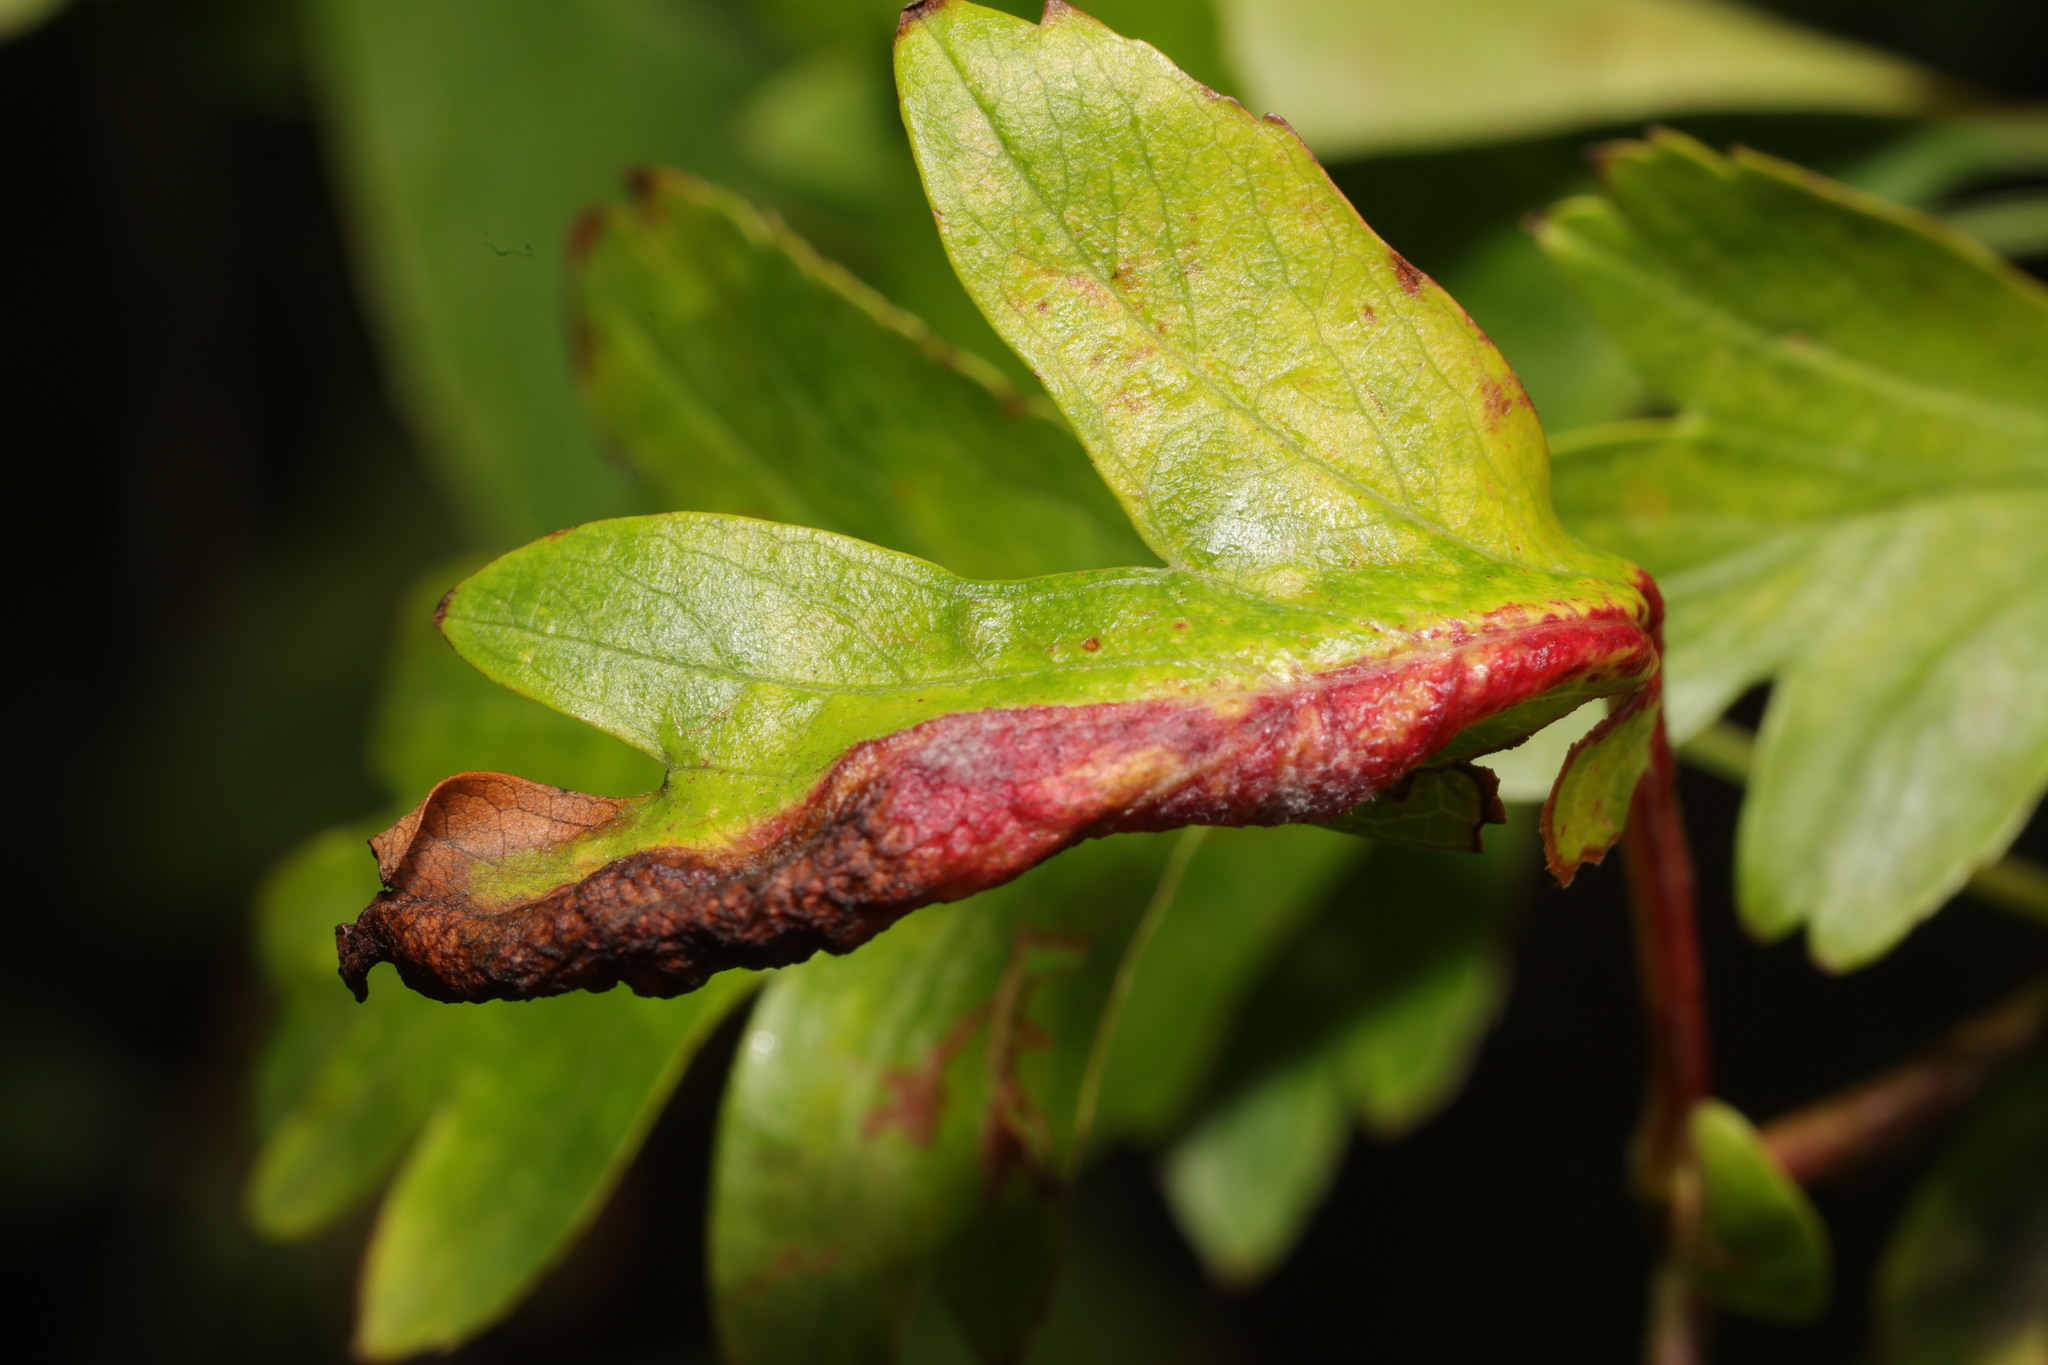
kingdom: Animalia
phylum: Arthropoda
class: Insecta
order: Hemiptera
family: Aphididae
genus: Dysaphis
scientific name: Dysaphis crataegi
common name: Aphid
